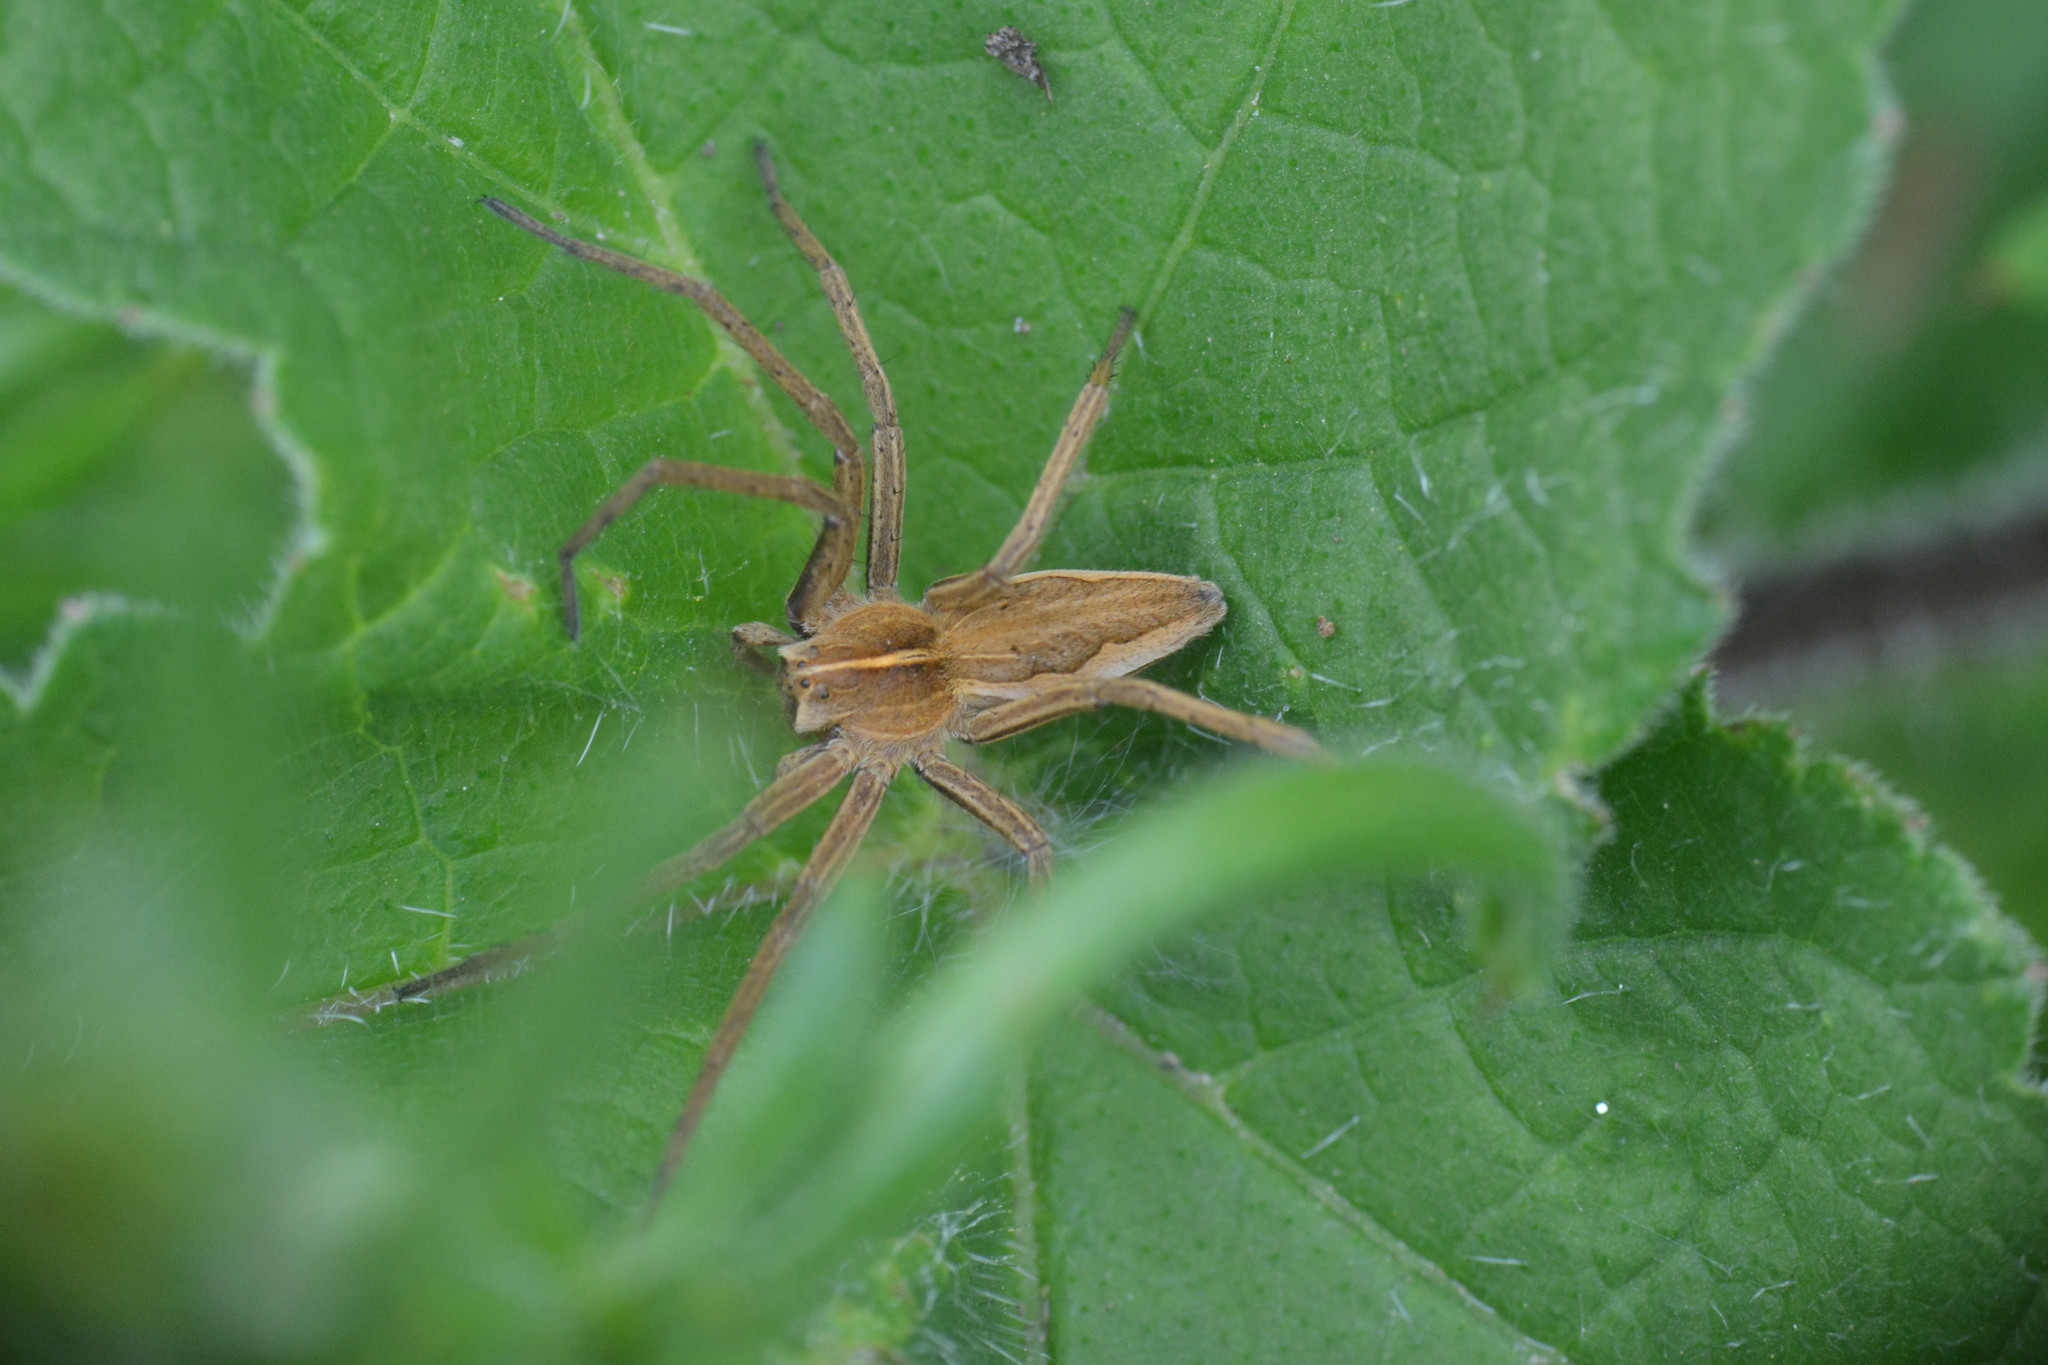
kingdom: Animalia
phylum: Arthropoda
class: Arachnida
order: Araneae
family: Pisauridae
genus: Pisaura
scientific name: Pisaura mirabilis
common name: Tent spider
